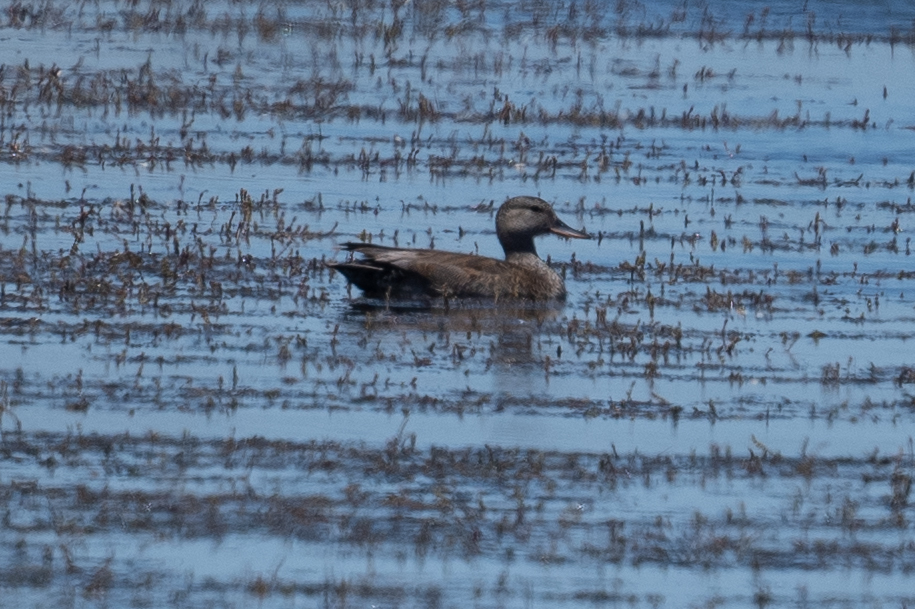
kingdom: Animalia
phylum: Chordata
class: Aves
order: Anseriformes
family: Anatidae
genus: Mareca
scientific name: Mareca strepera
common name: Gadwall
